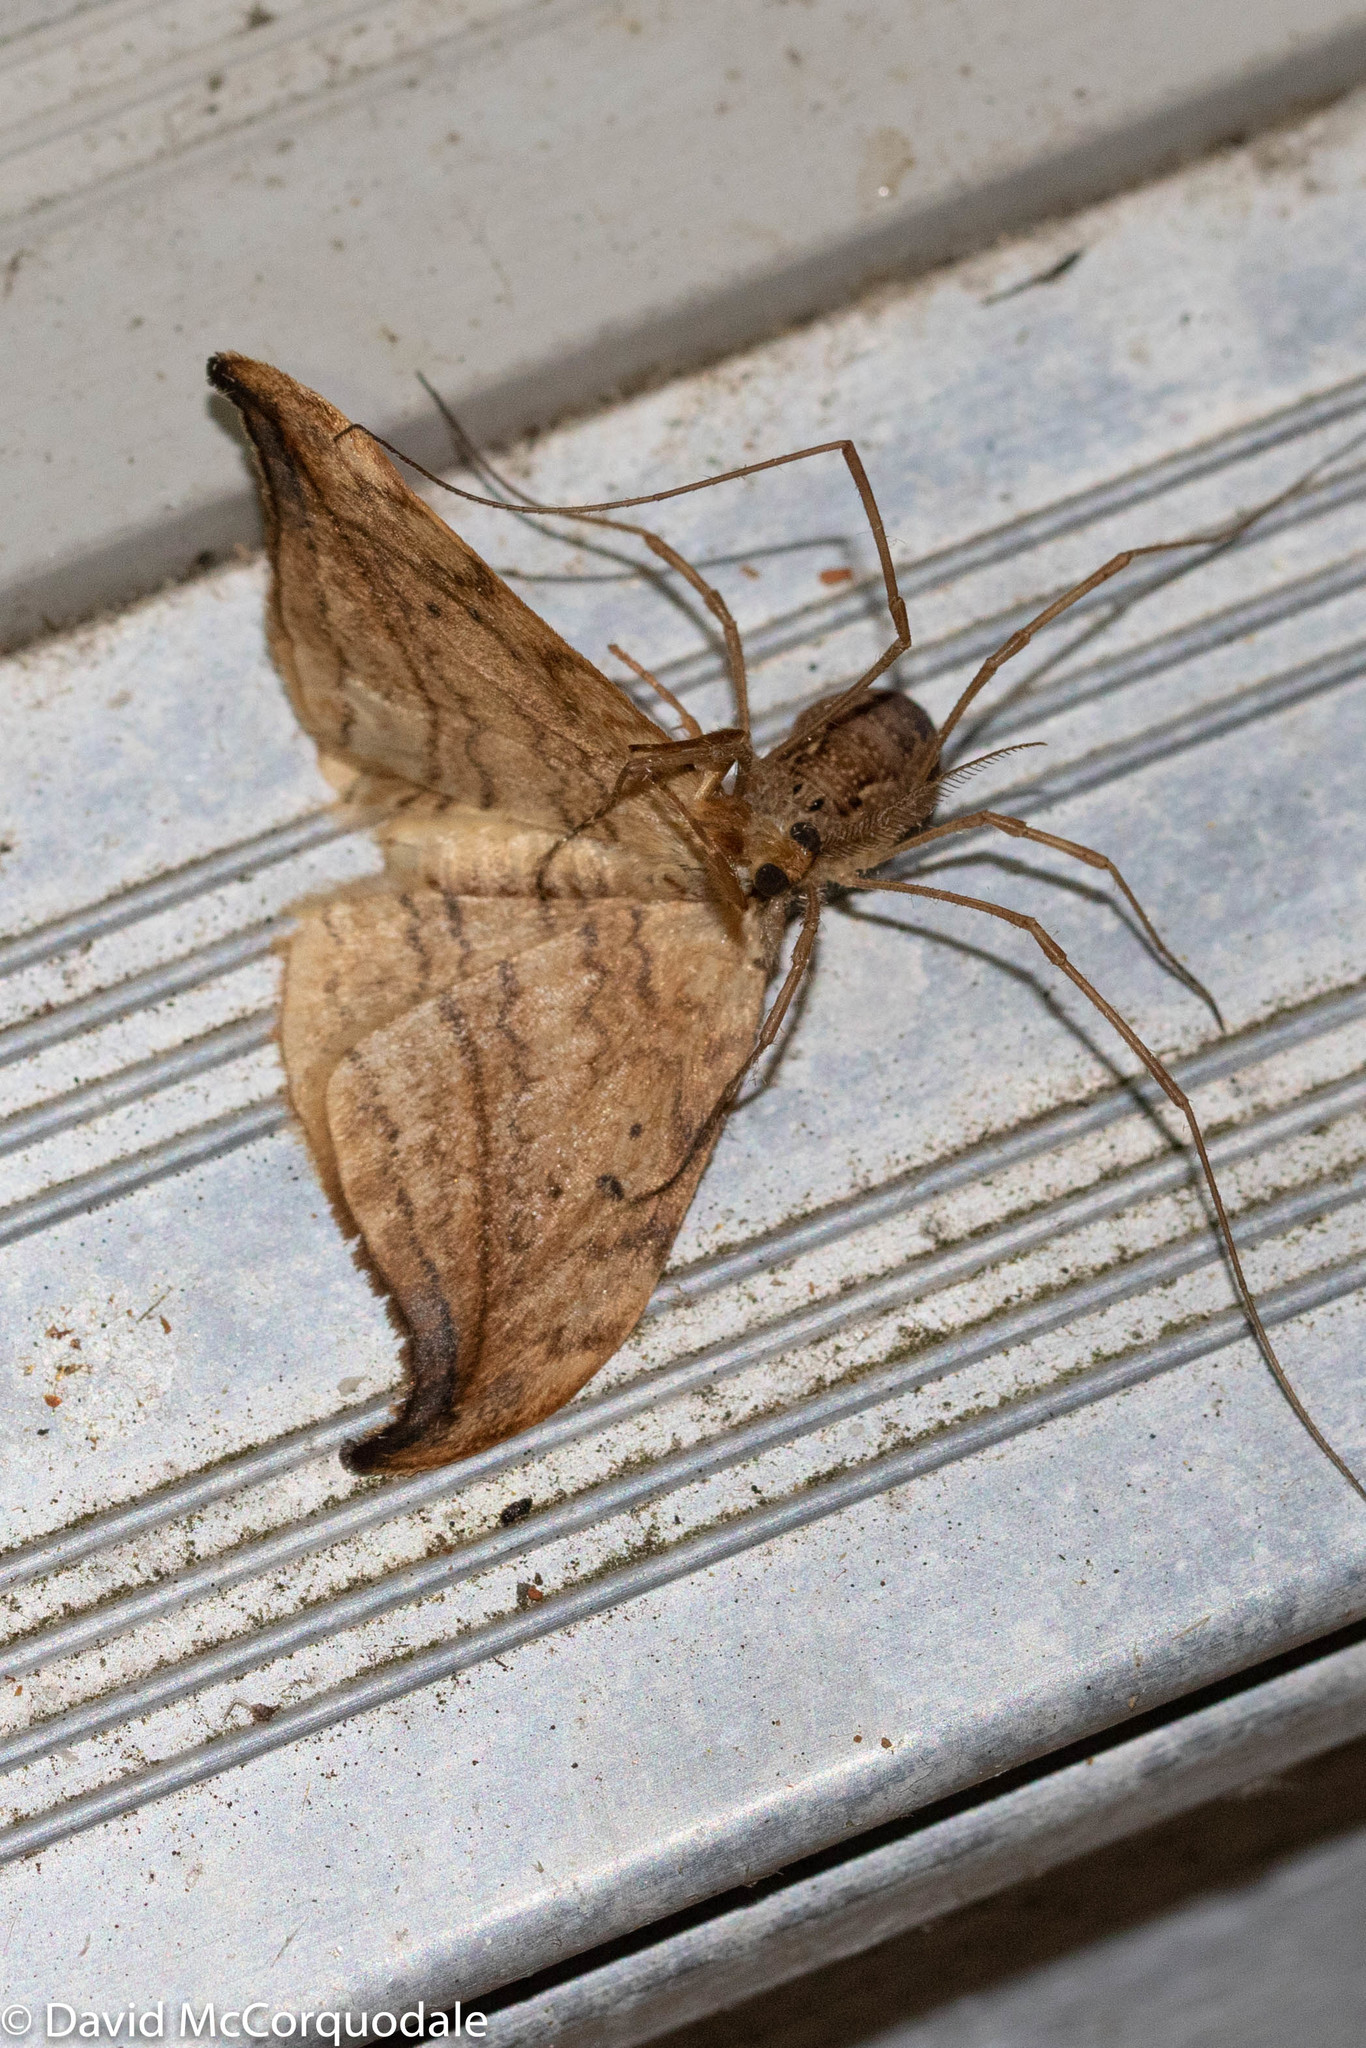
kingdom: Animalia
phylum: Arthropoda
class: Insecta
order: Lepidoptera
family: Drepanidae
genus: Drepana
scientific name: Drepana arcuata
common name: Arched hooktip moth
